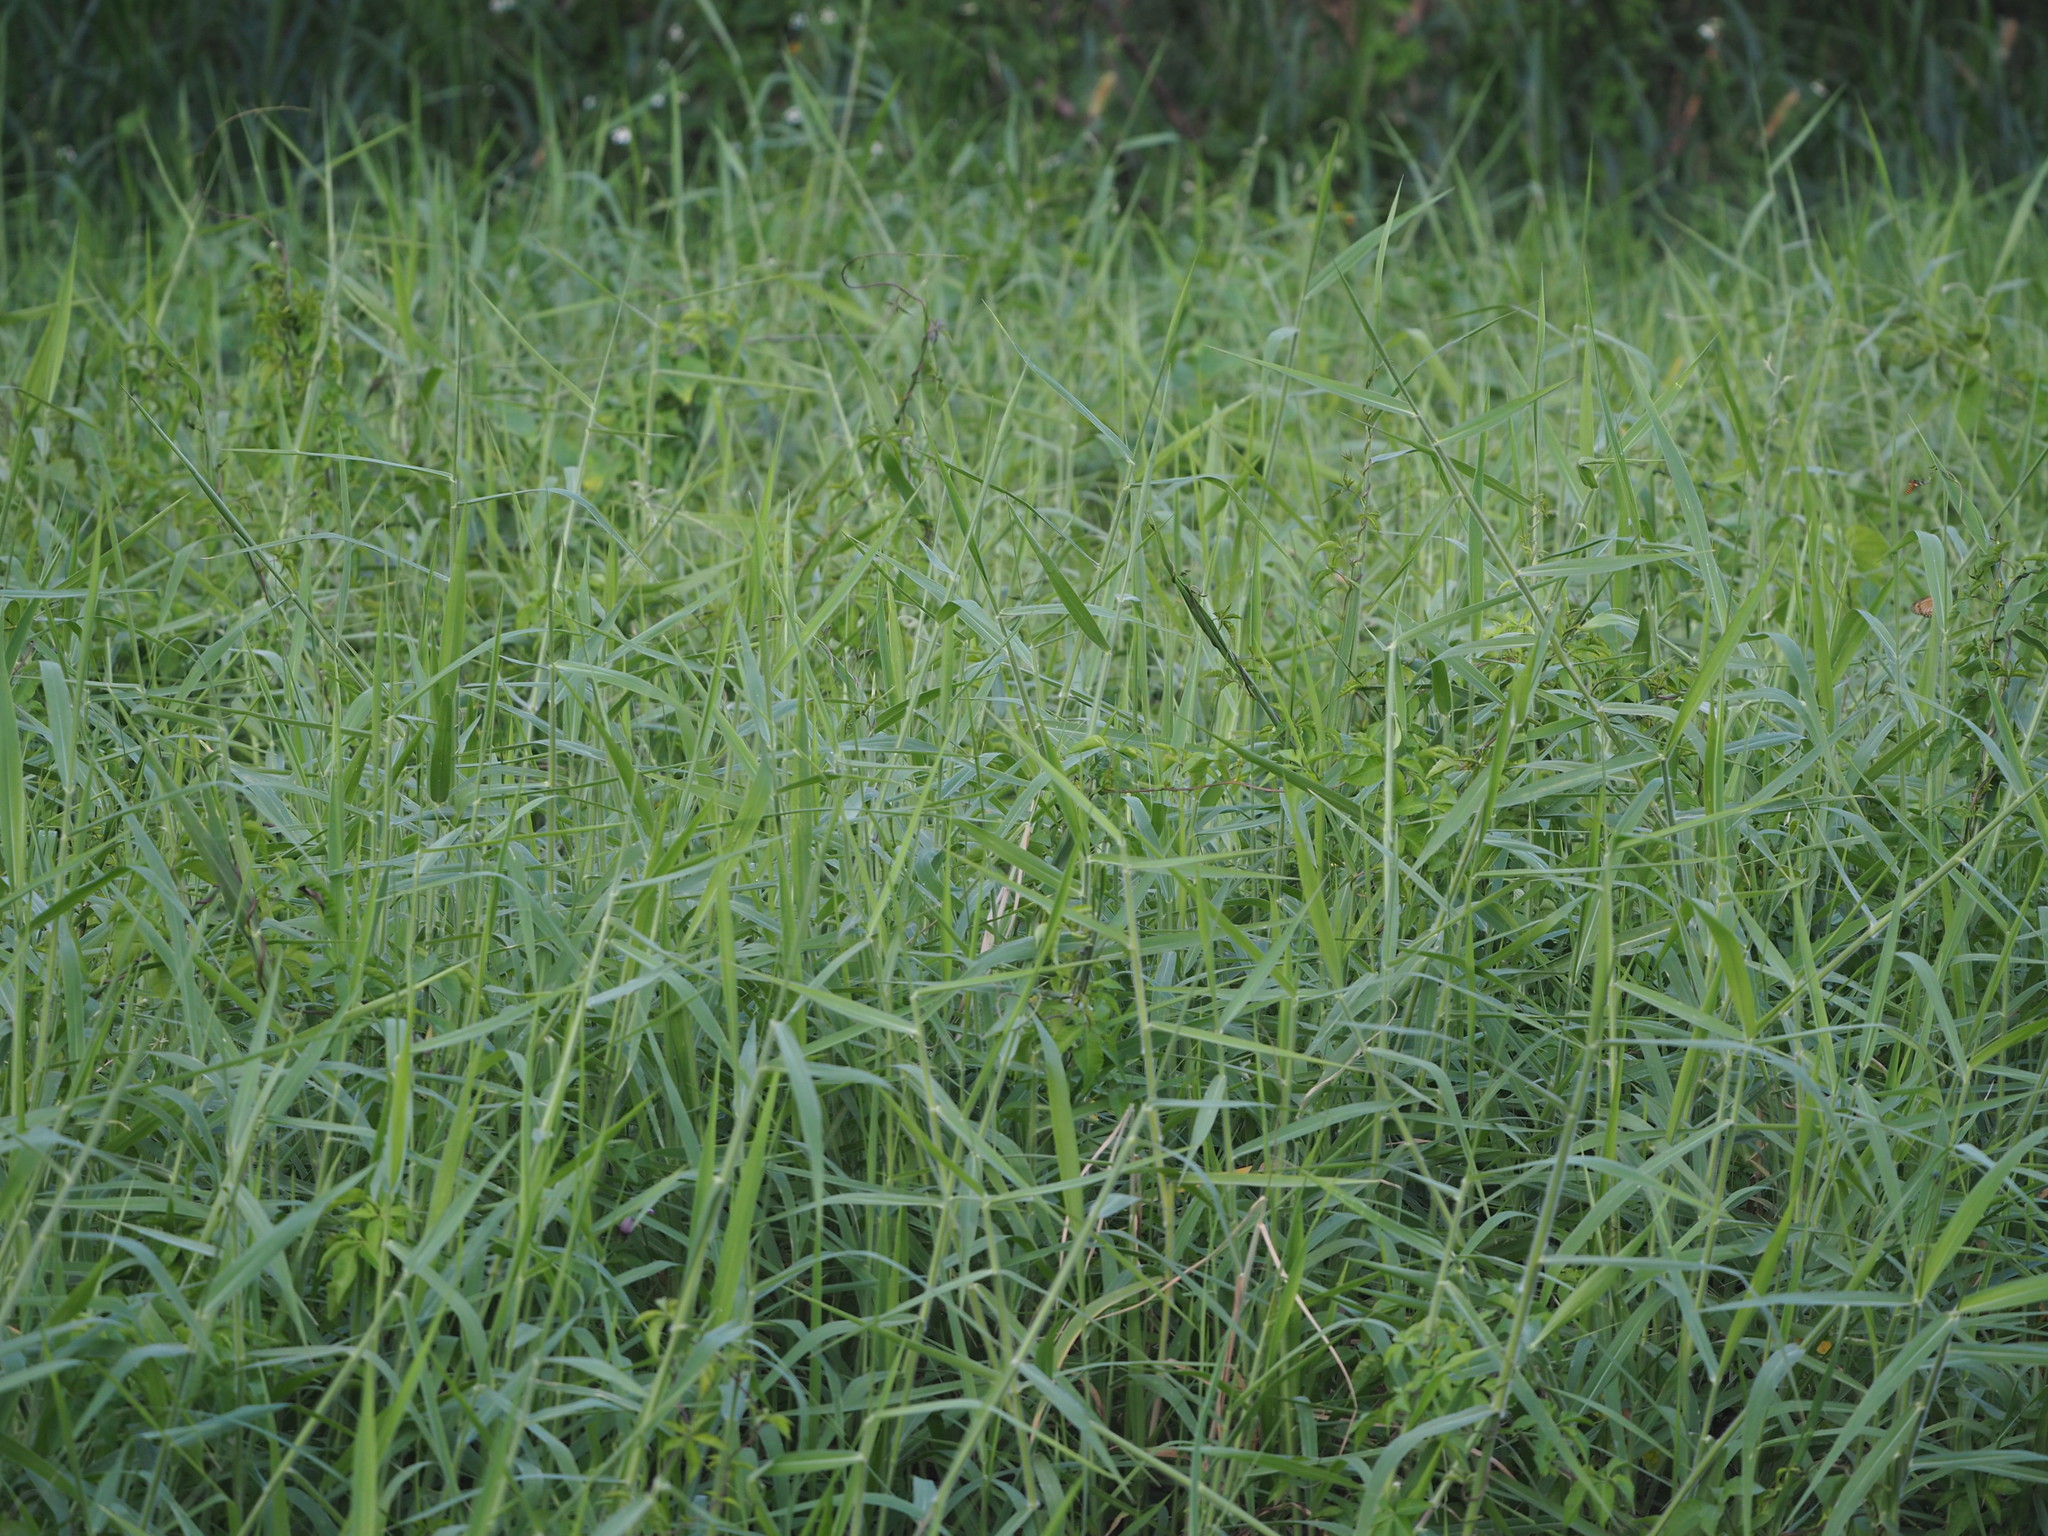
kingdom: Plantae
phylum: Tracheophyta
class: Liliopsida
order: Poales
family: Poaceae
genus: Urochloa
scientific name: Urochloa mutica
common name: Para grass
